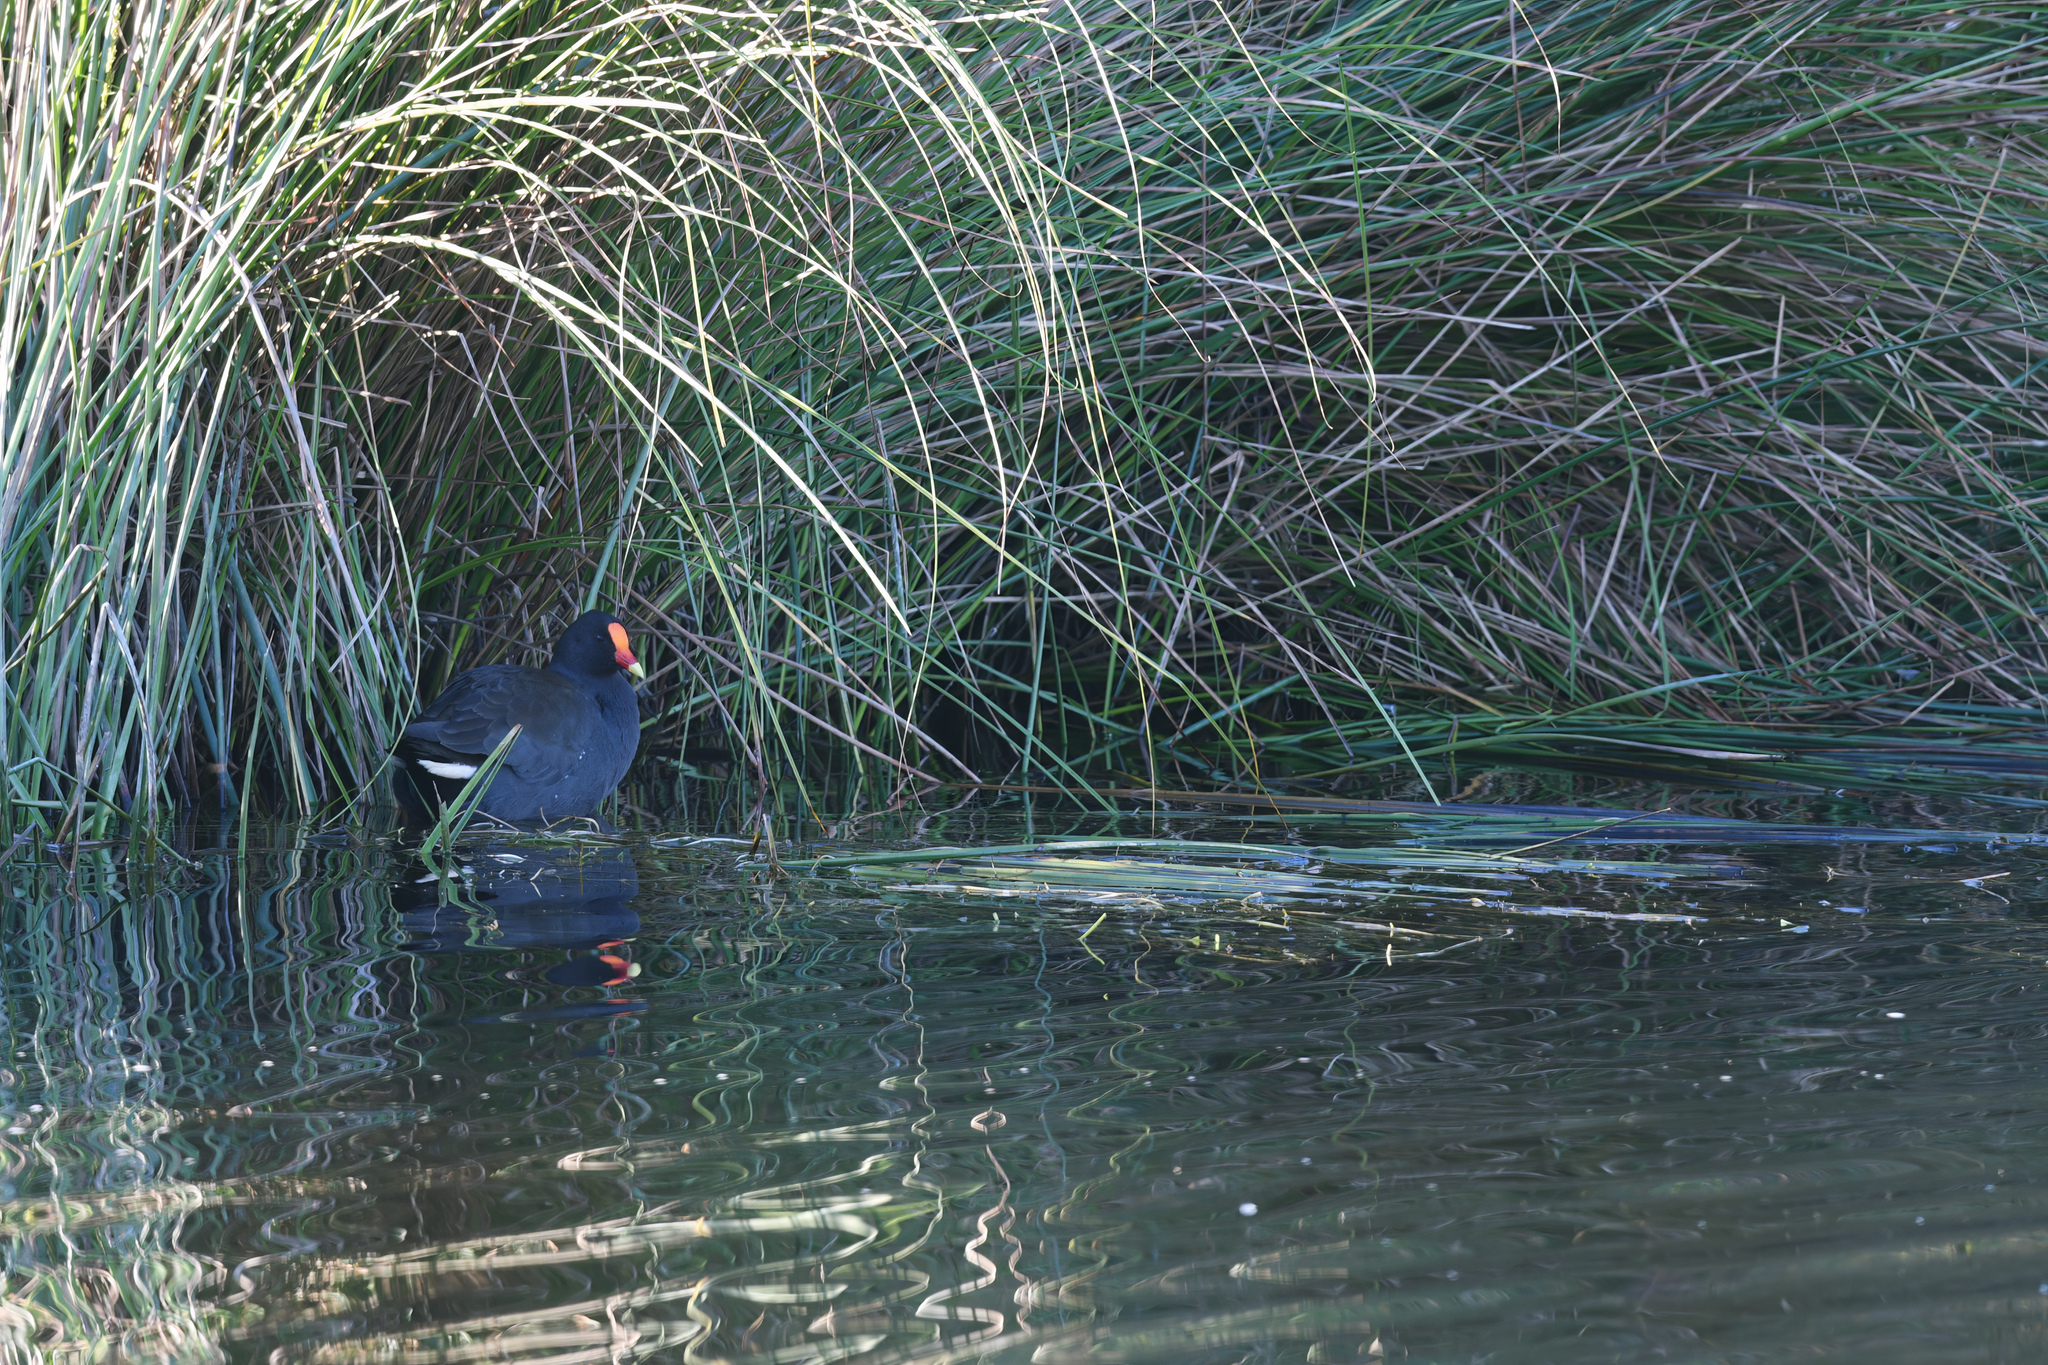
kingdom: Animalia
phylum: Chordata
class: Aves
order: Gruiformes
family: Rallidae
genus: Gallinula
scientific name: Gallinula tenebrosa
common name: Dusky moorhen
